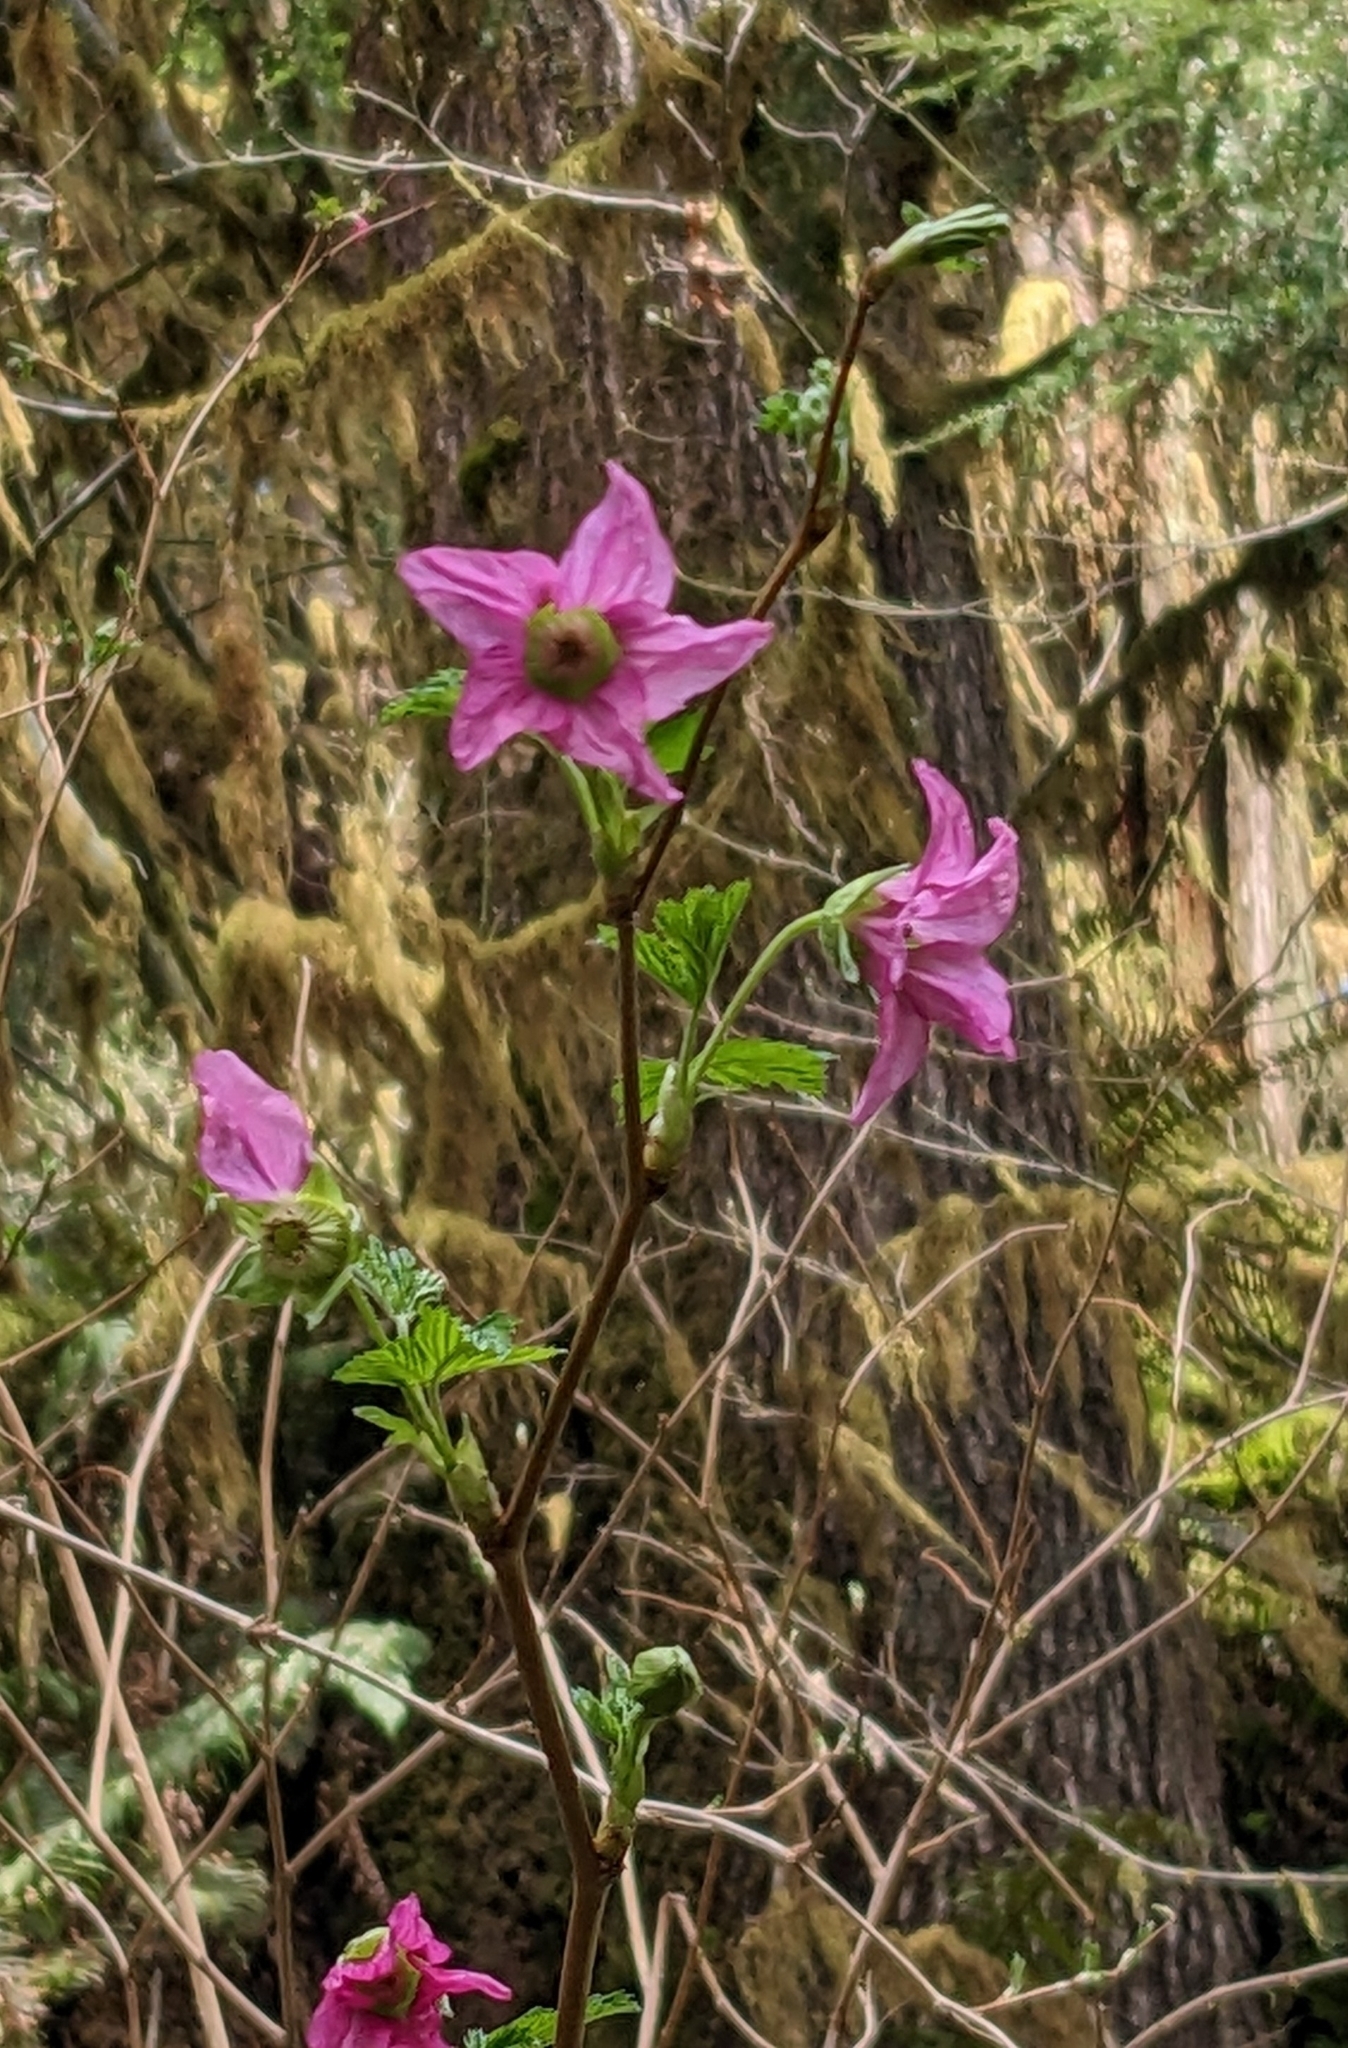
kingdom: Plantae
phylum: Tracheophyta
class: Magnoliopsida
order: Rosales
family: Rosaceae
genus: Rubus
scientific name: Rubus spectabilis
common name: Salmonberry
